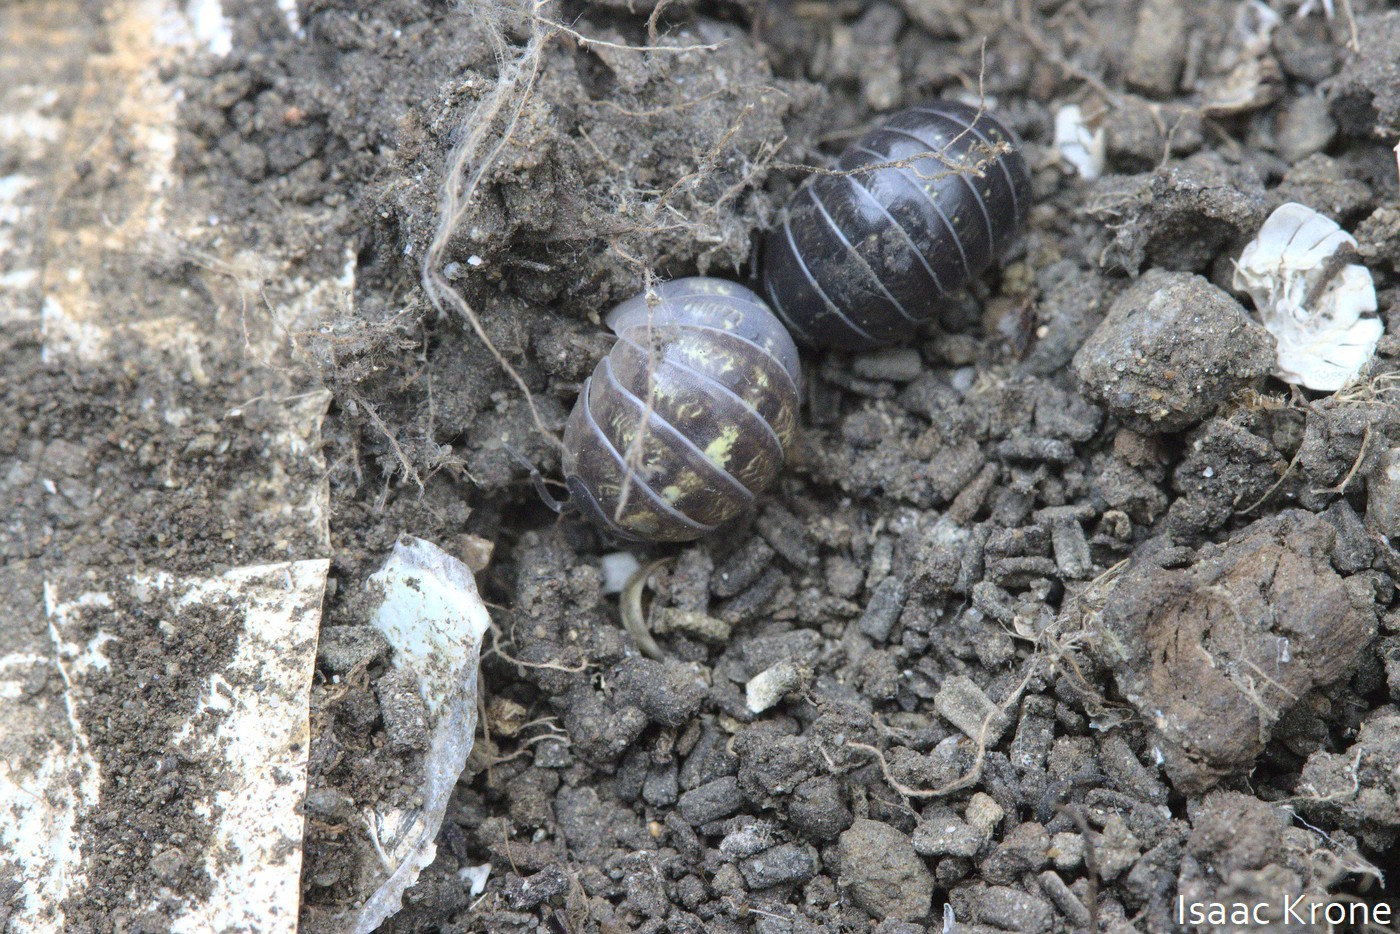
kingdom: Animalia
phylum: Arthropoda
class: Malacostraca
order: Isopoda
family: Armadillidiidae
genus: Armadillidium
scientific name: Armadillidium vulgare
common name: Common pill woodlouse
